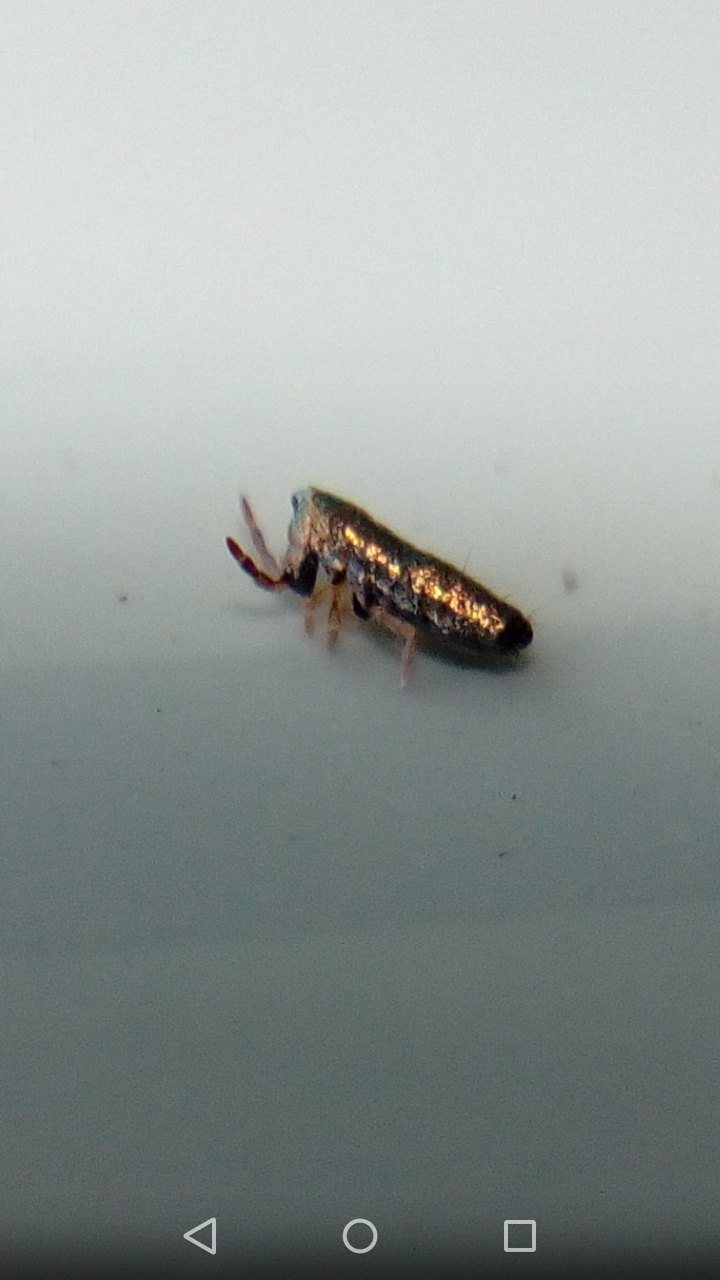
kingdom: Animalia
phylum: Arthropoda
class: Collembola
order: Entomobryomorpha
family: Entomobryidae
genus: Lepidocyrtus
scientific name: Lepidocyrtus paradoxus
